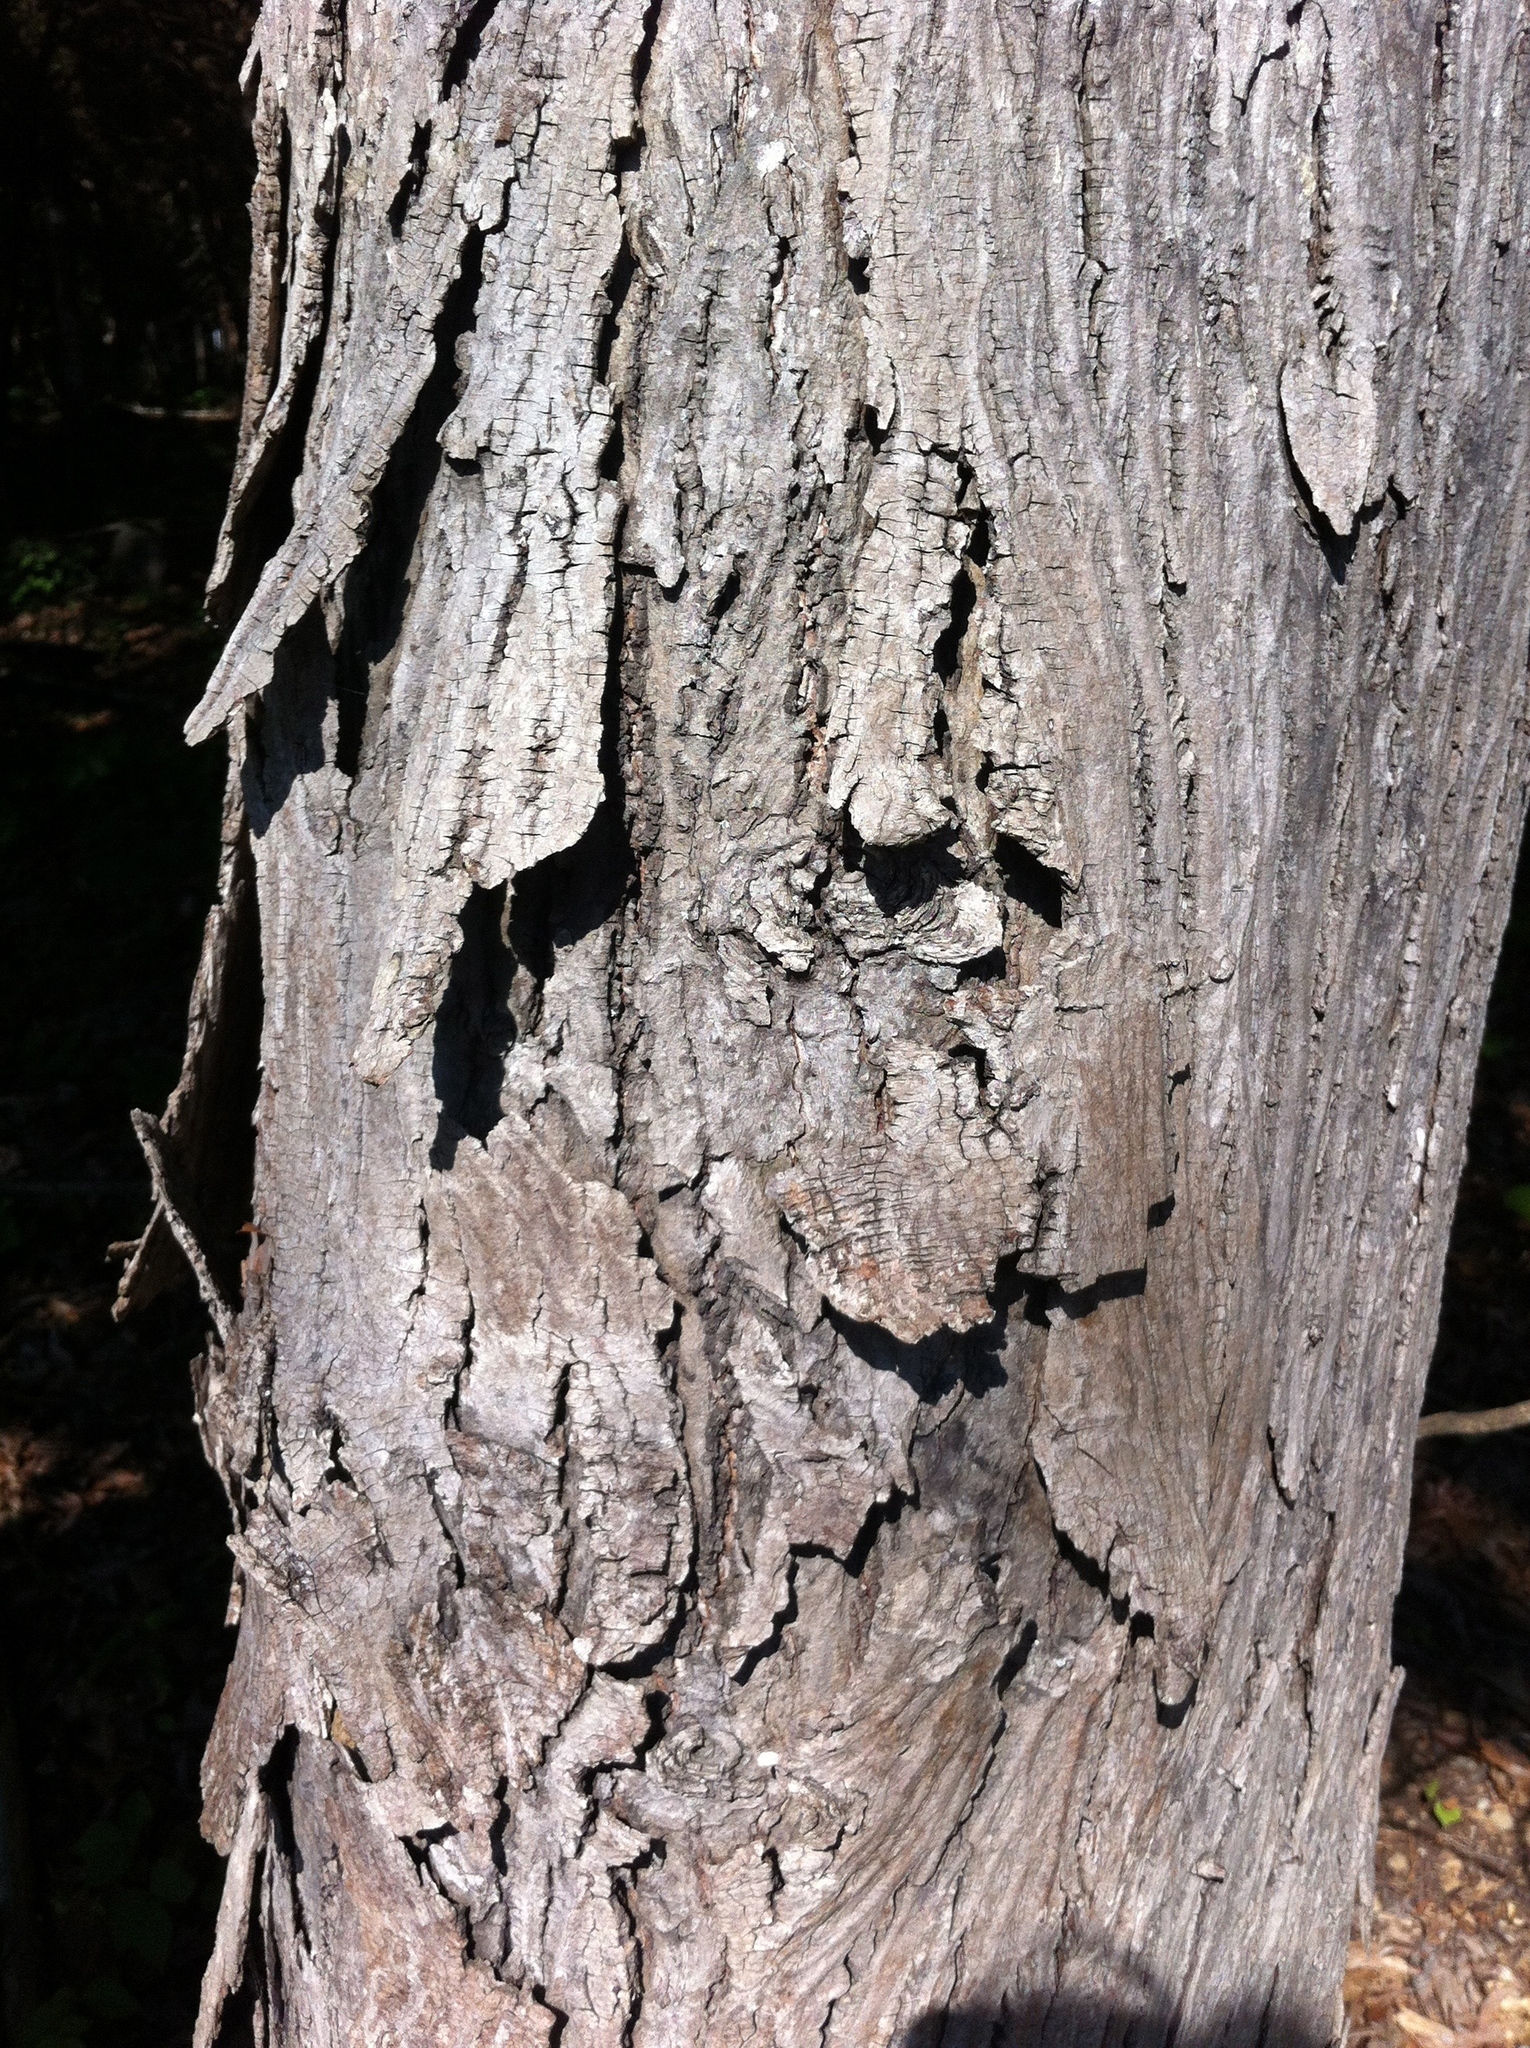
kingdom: Plantae
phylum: Tracheophyta
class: Magnoliopsida
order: Fagales
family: Juglandaceae
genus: Carya
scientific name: Carya ovata
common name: Shagbark hickory
